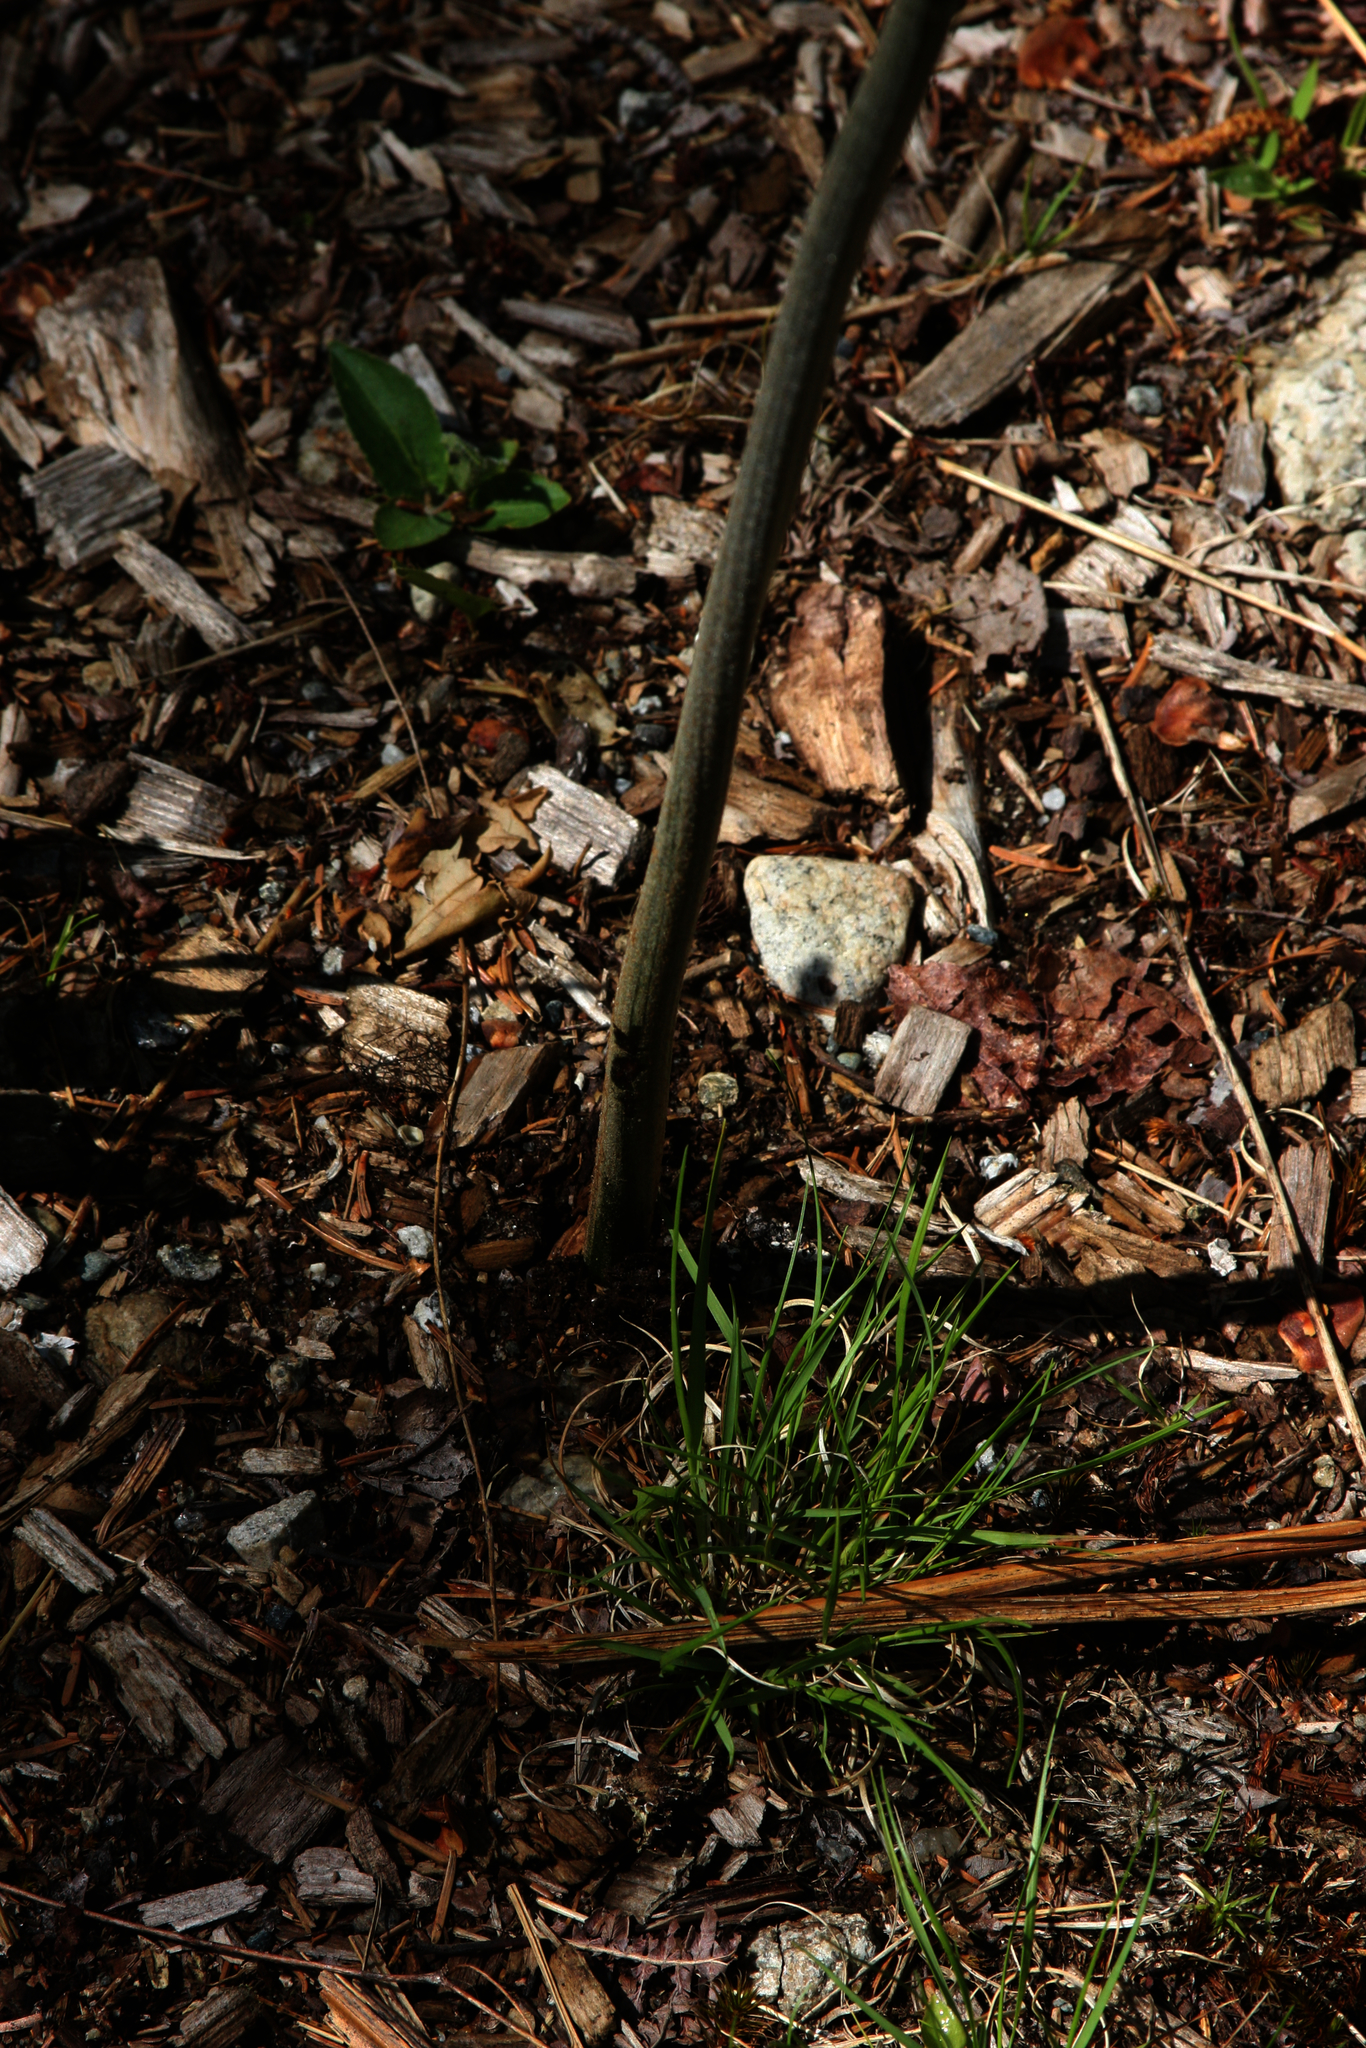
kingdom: Plantae
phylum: Tracheophyta
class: Polypodiopsida
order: Polypodiales
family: Dennstaedtiaceae
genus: Pteridium
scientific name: Pteridium aquilinum
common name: Bracken
